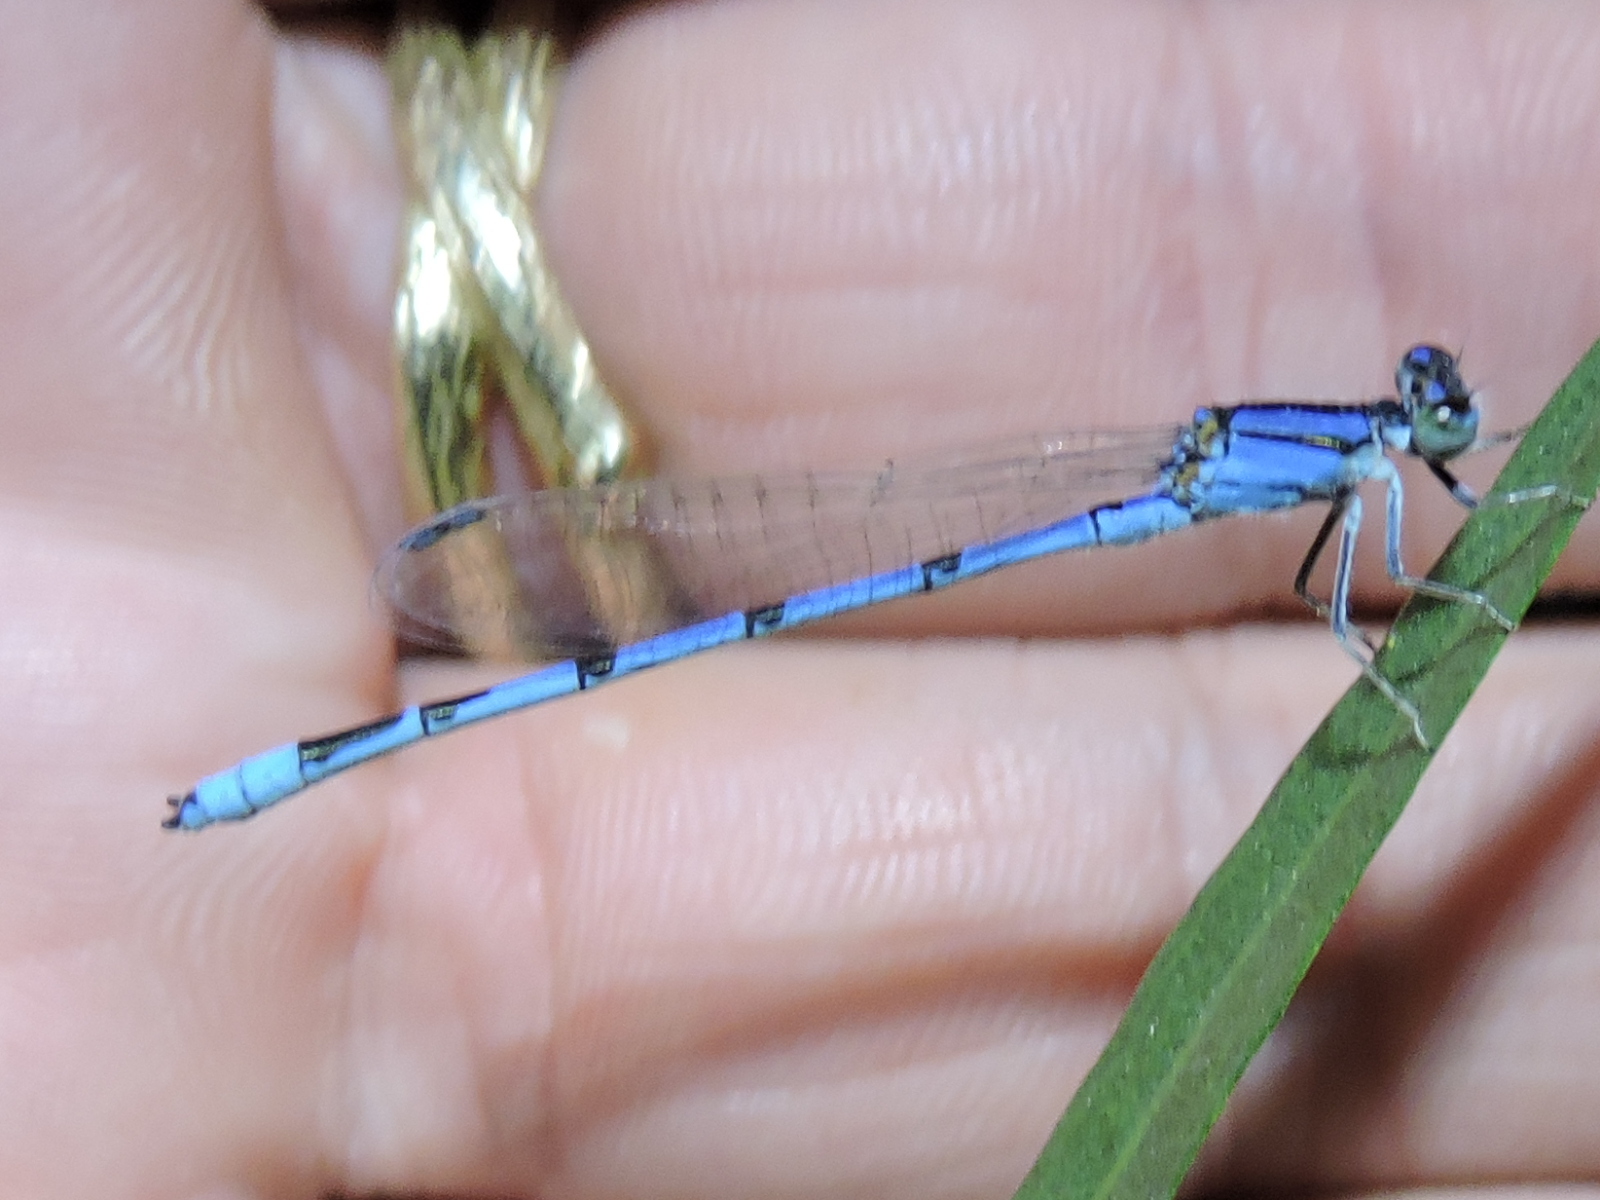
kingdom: Animalia
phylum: Arthropoda
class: Insecta
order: Odonata
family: Coenagrionidae
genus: Enallagma
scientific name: Enallagma civile
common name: Damselfly
